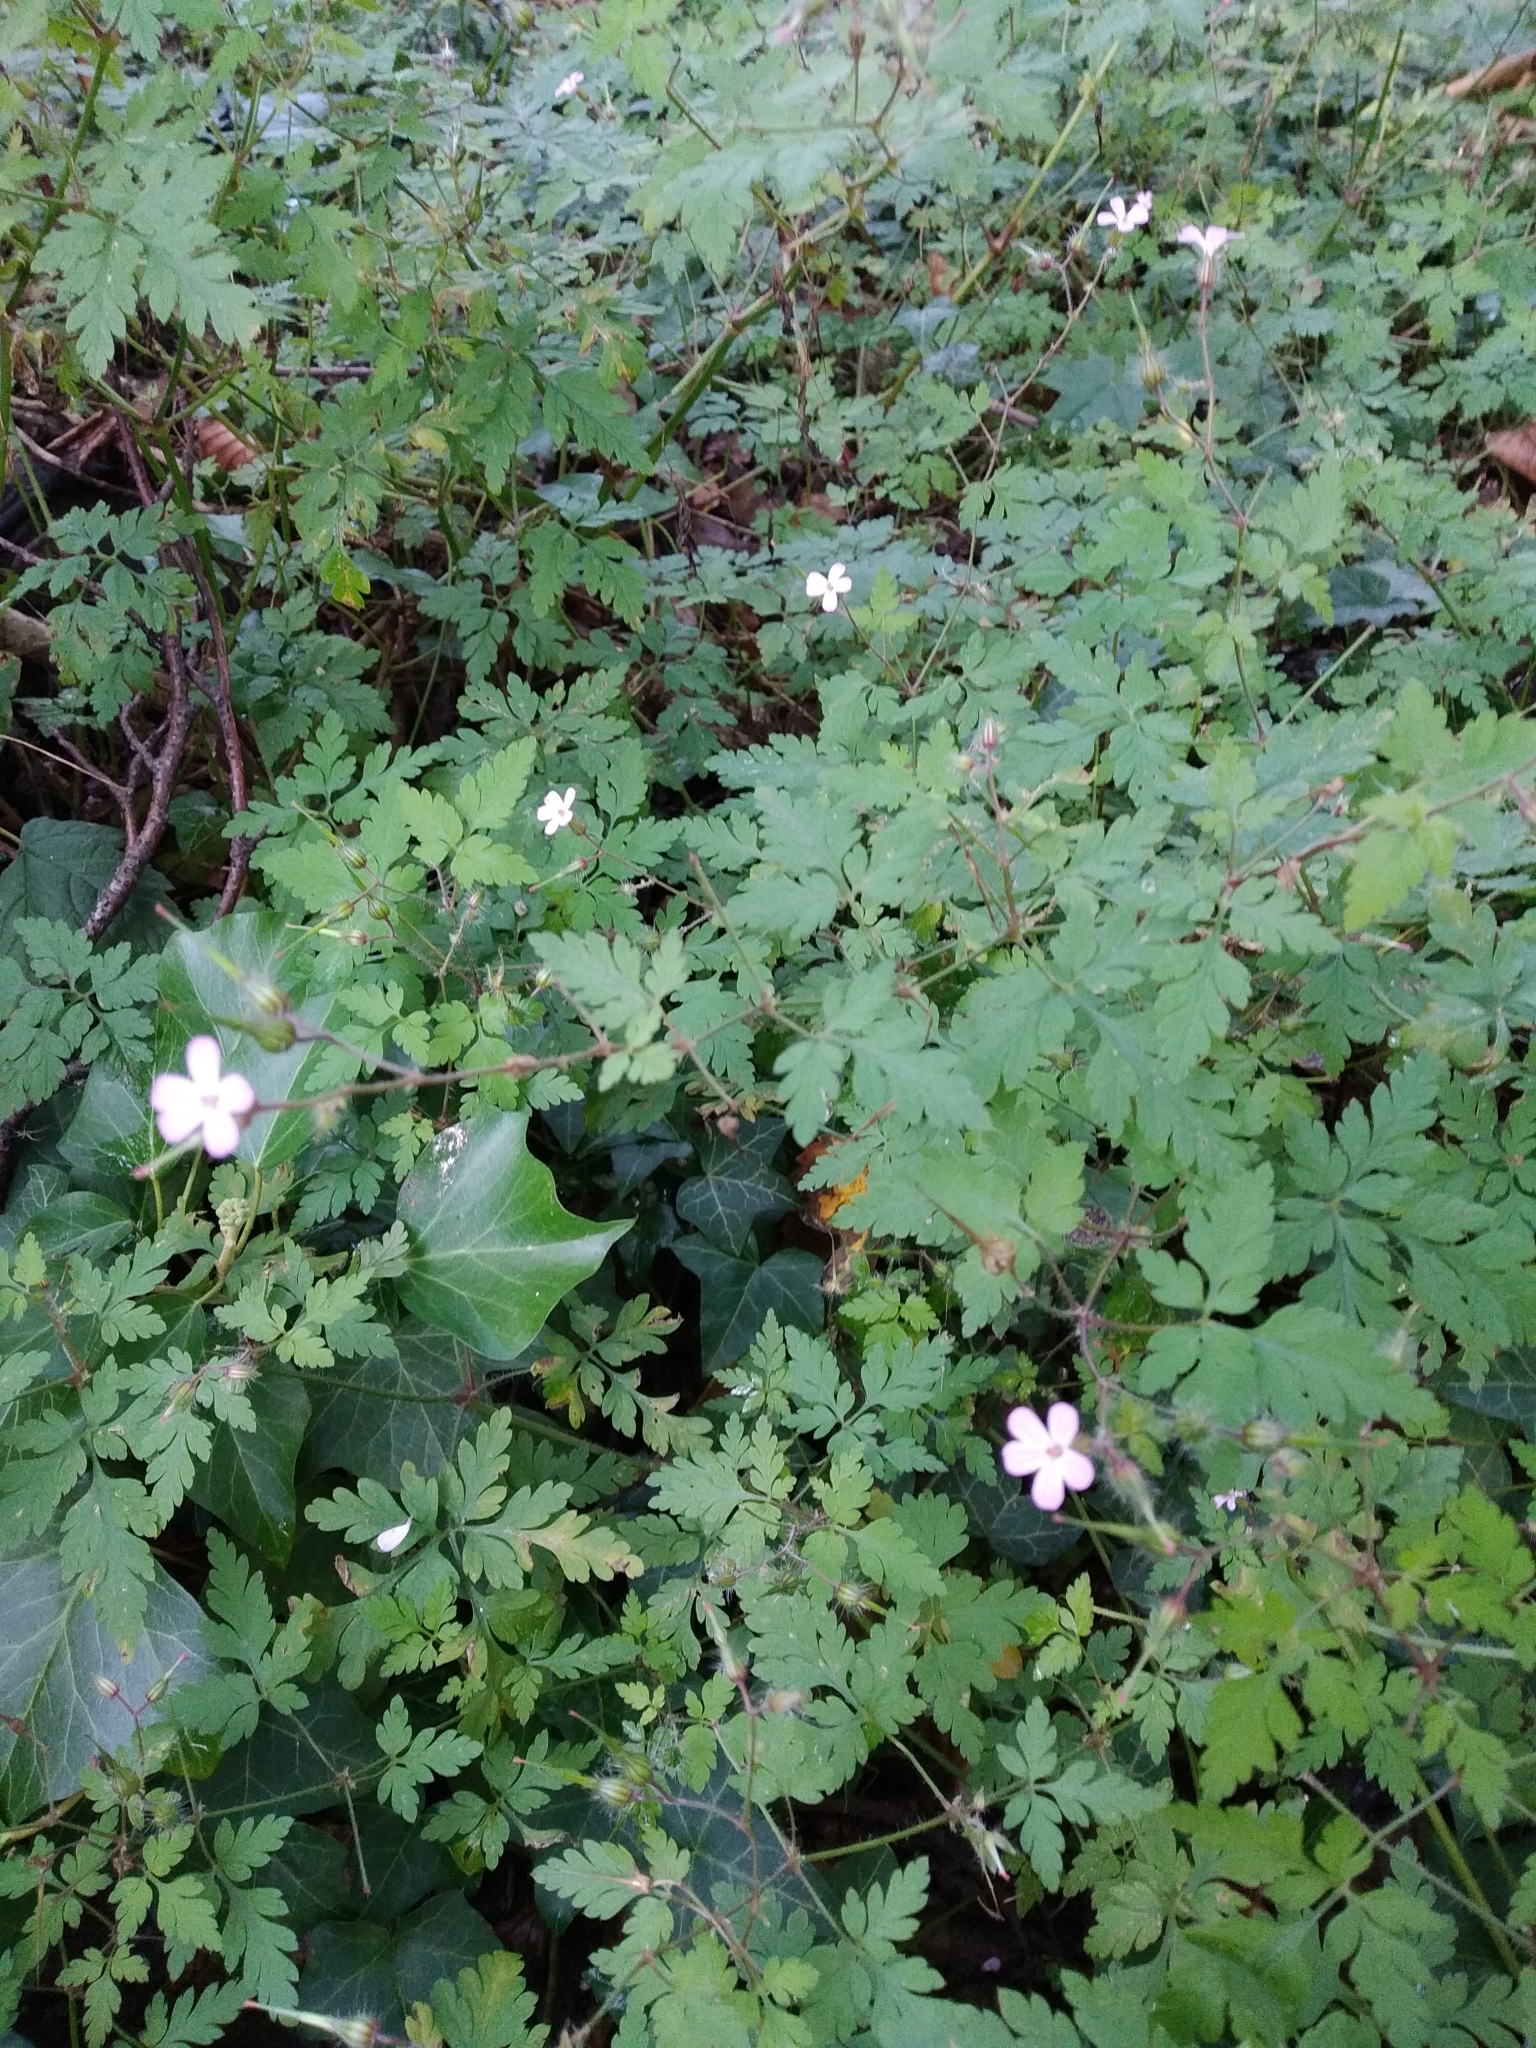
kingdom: Plantae
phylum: Tracheophyta
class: Magnoliopsida
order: Geraniales
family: Geraniaceae
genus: Geranium
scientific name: Geranium robertianum
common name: Herb-robert
